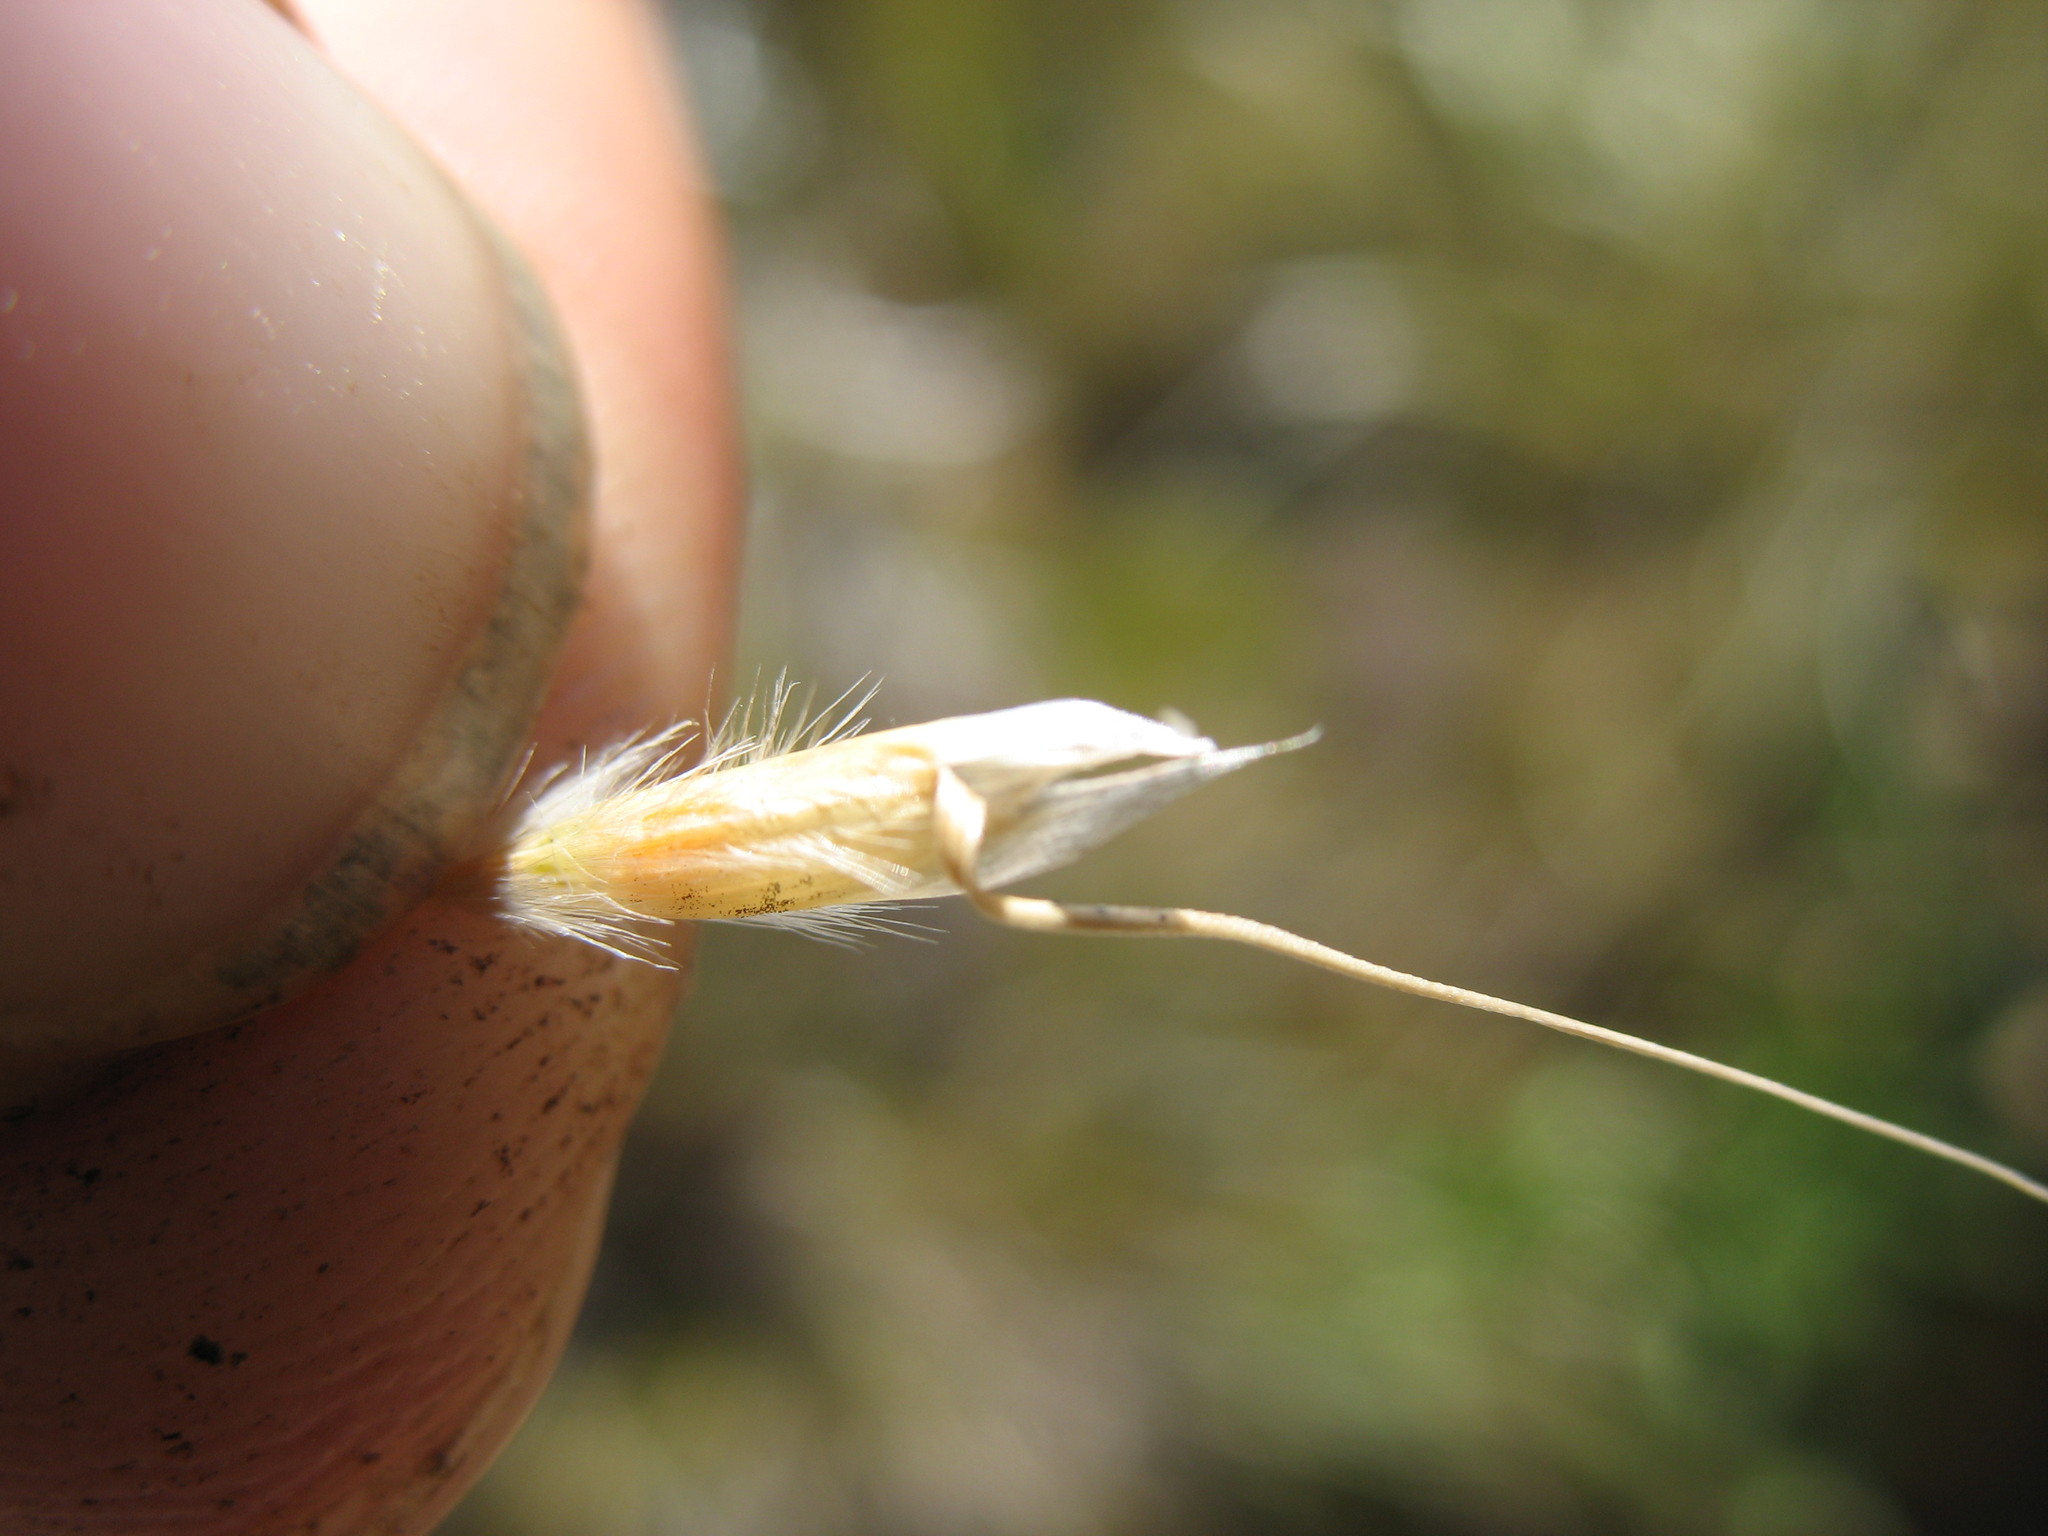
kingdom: Plantae
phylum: Tracheophyta
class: Liliopsida
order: Poales
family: Poaceae
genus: Chionochloa
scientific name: Chionochloa pallens
